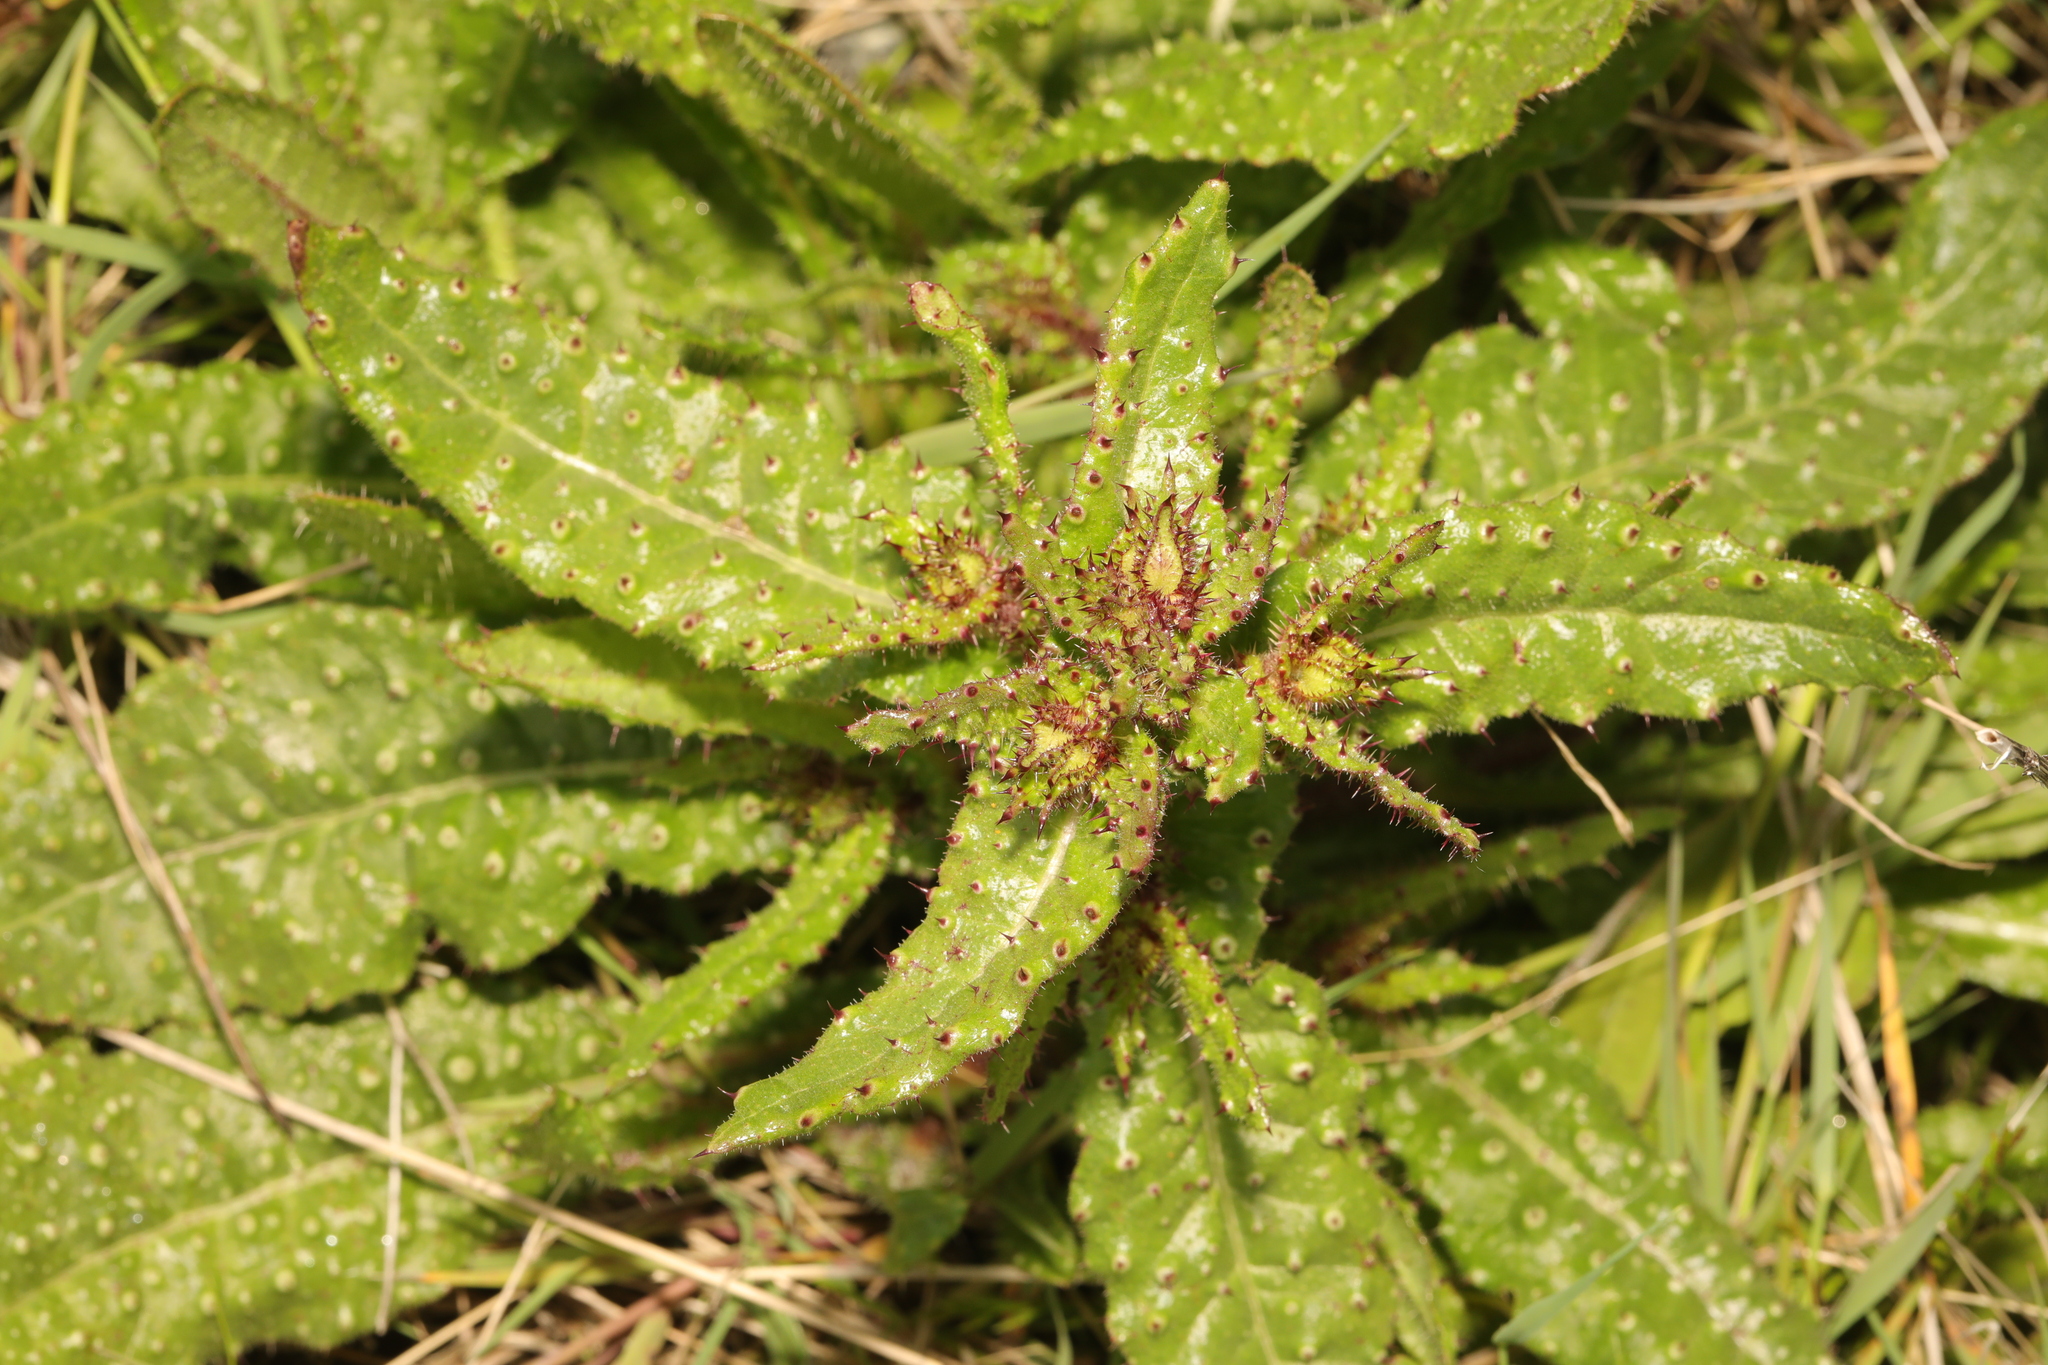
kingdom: Plantae
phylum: Tracheophyta
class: Magnoliopsida
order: Asterales
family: Asteraceae
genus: Helminthotheca
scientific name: Helminthotheca echioides
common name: Ox-tongue
